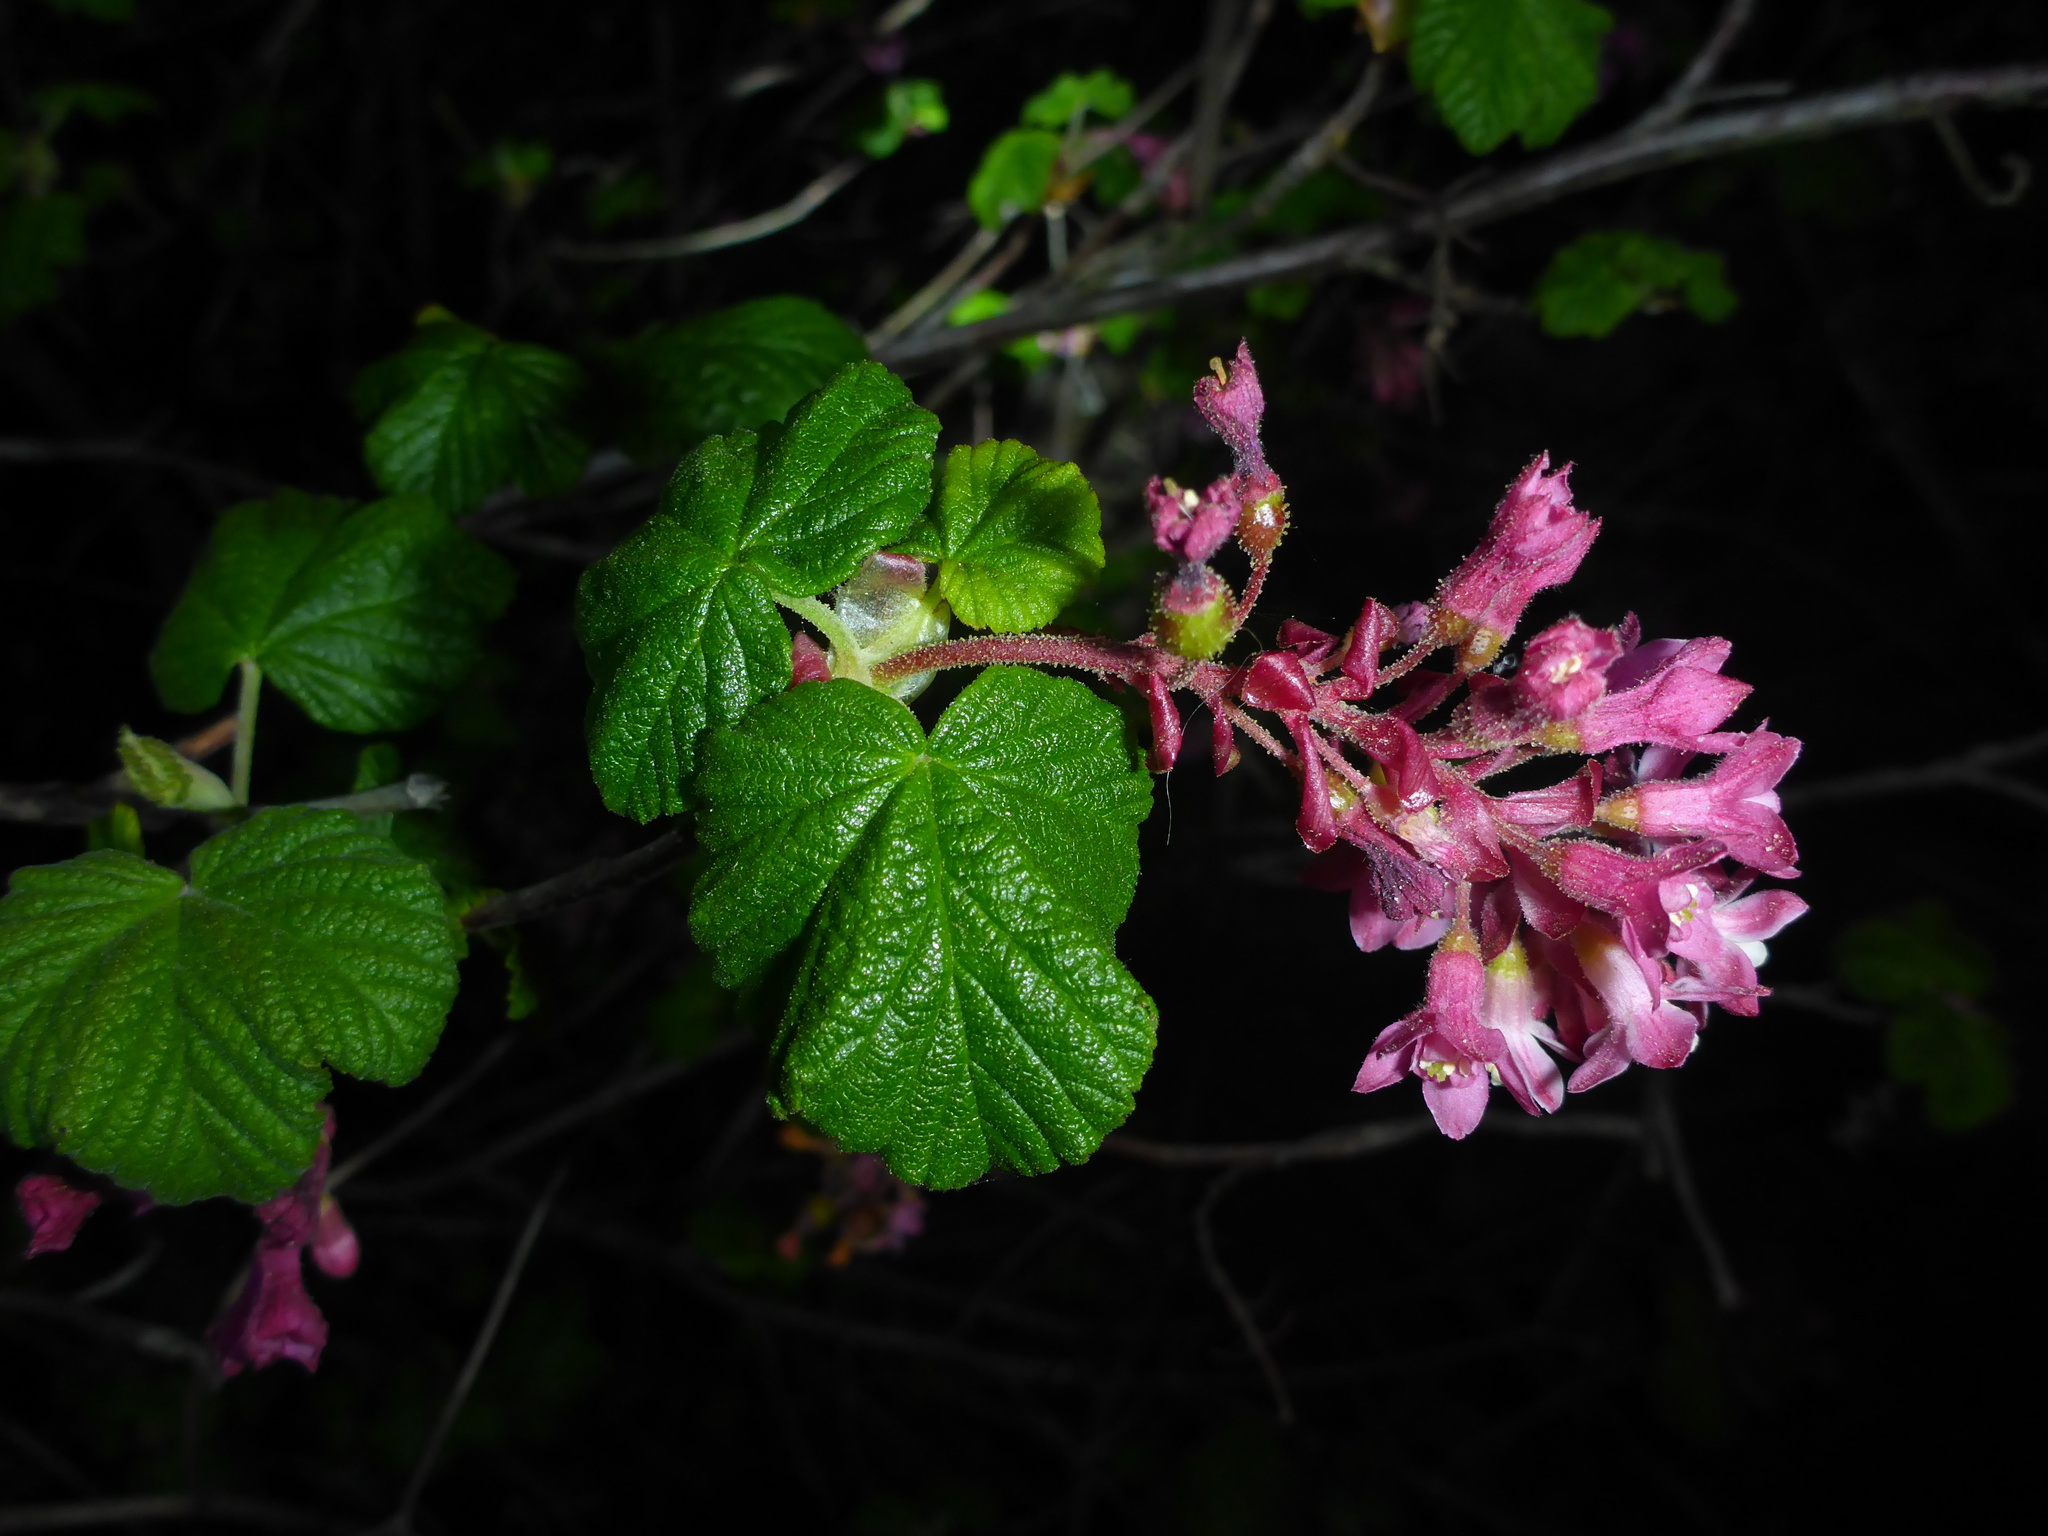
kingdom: Plantae
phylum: Tracheophyta
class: Magnoliopsida
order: Saxifragales
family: Grossulariaceae
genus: Ribes
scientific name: Ribes sanguineum
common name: Flowering currant
